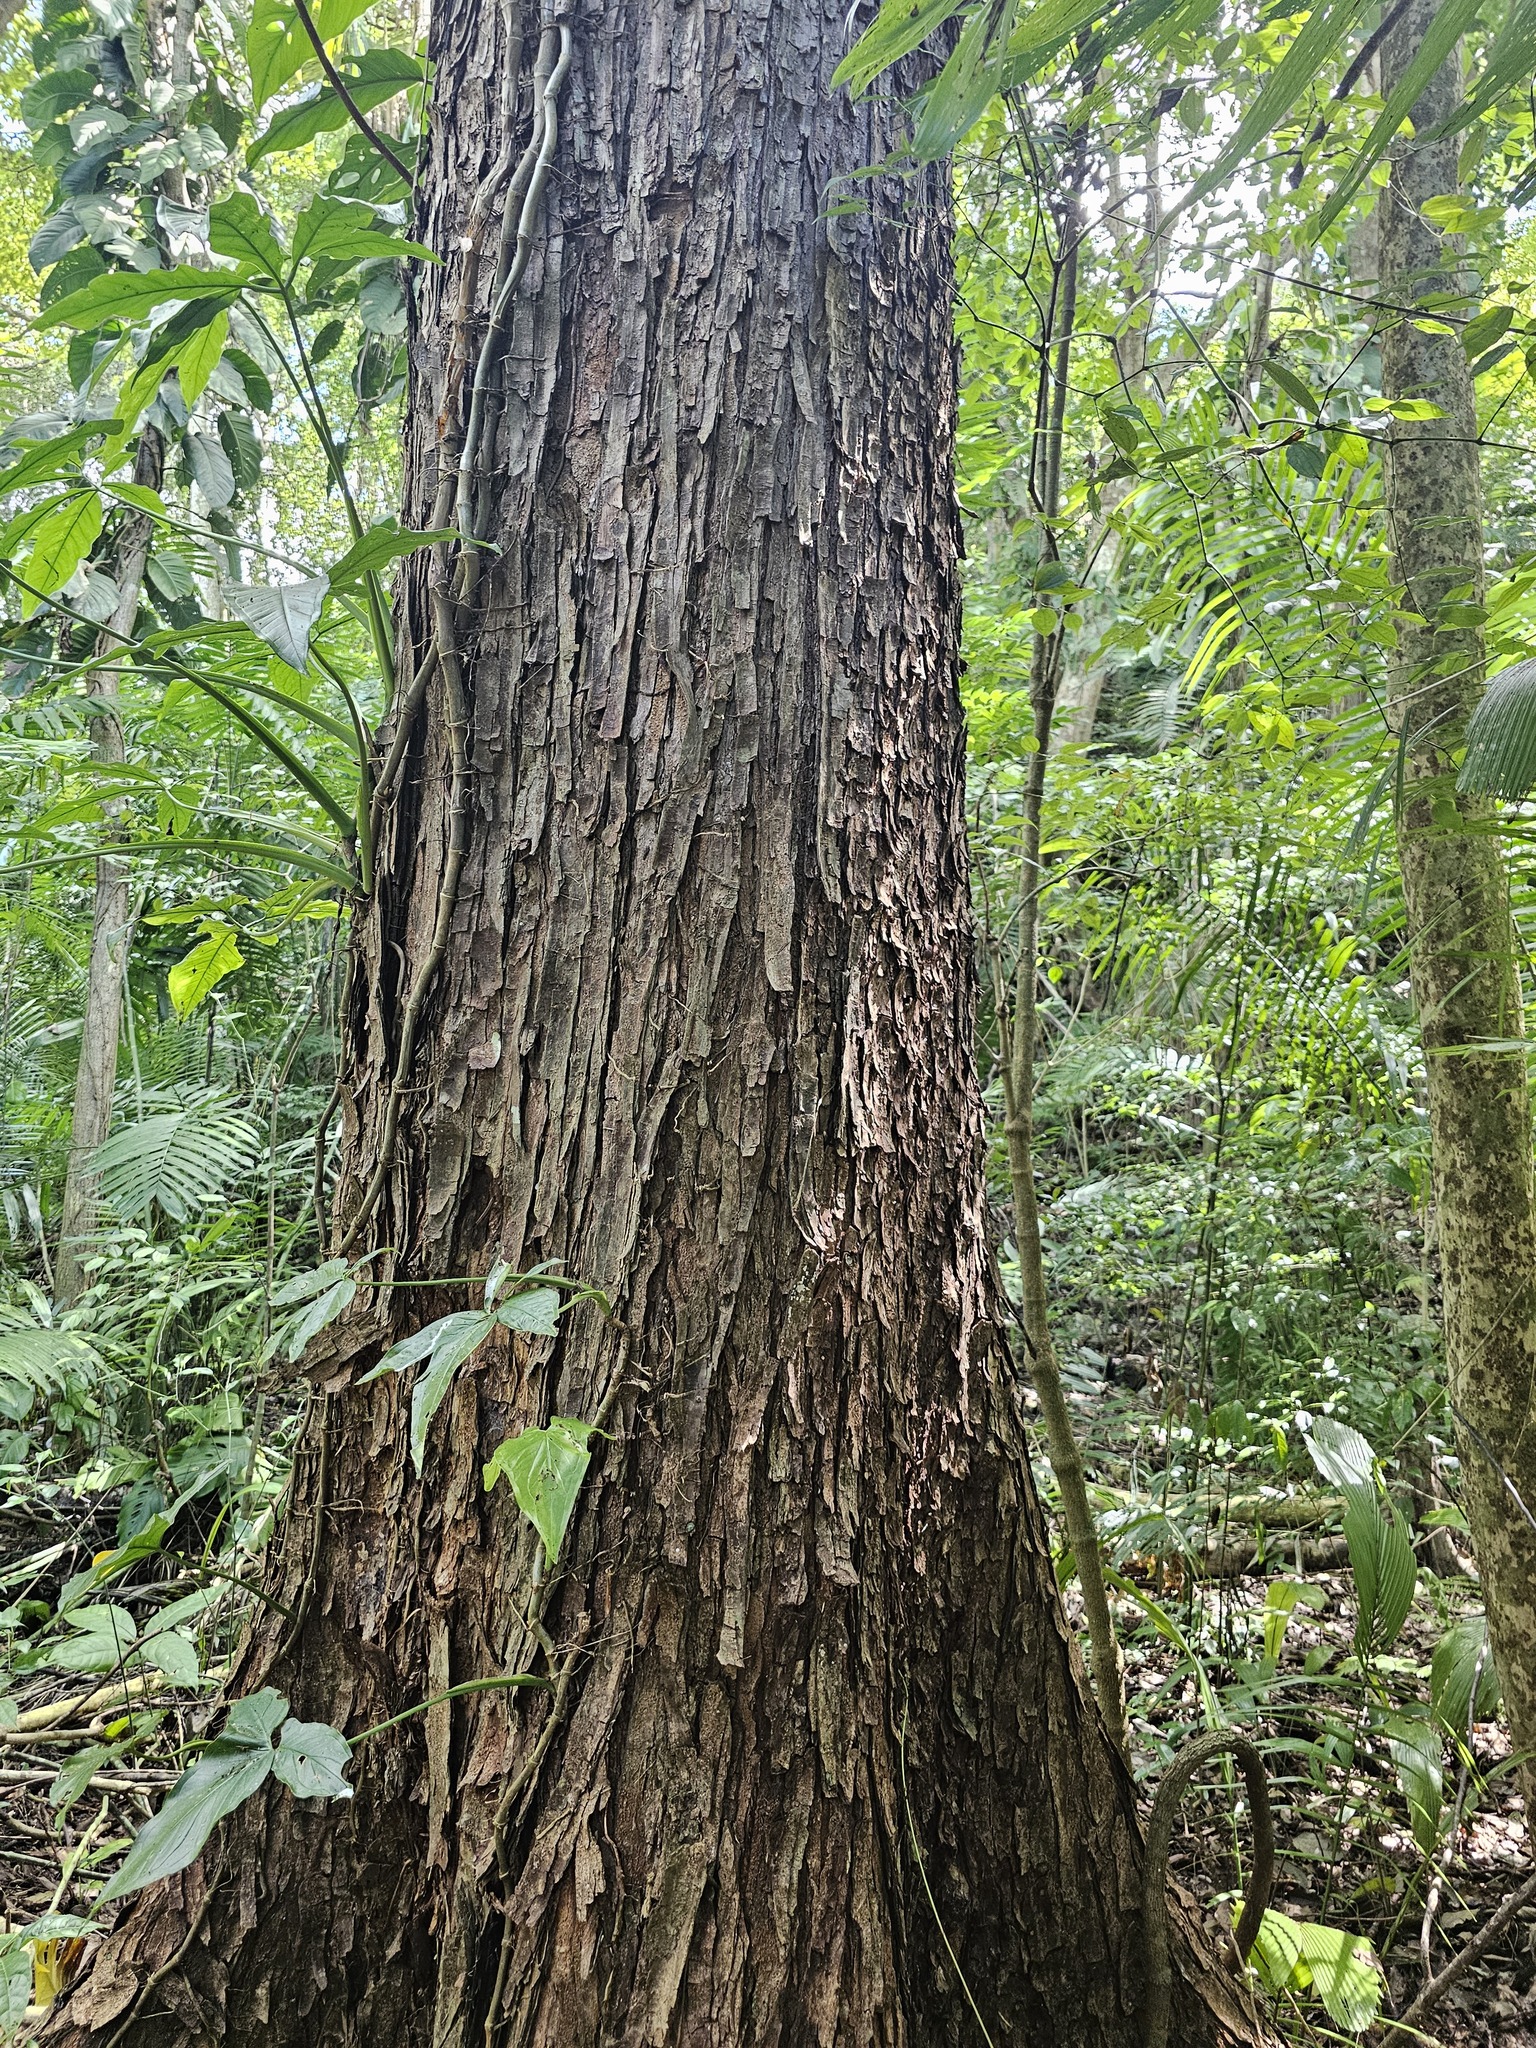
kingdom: Plantae
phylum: Tracheophyta
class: Magnoliopsida
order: Sapindales
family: Meliaceae
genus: Swietenia
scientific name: Swietenia macrophylla
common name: Honduras mahogany
